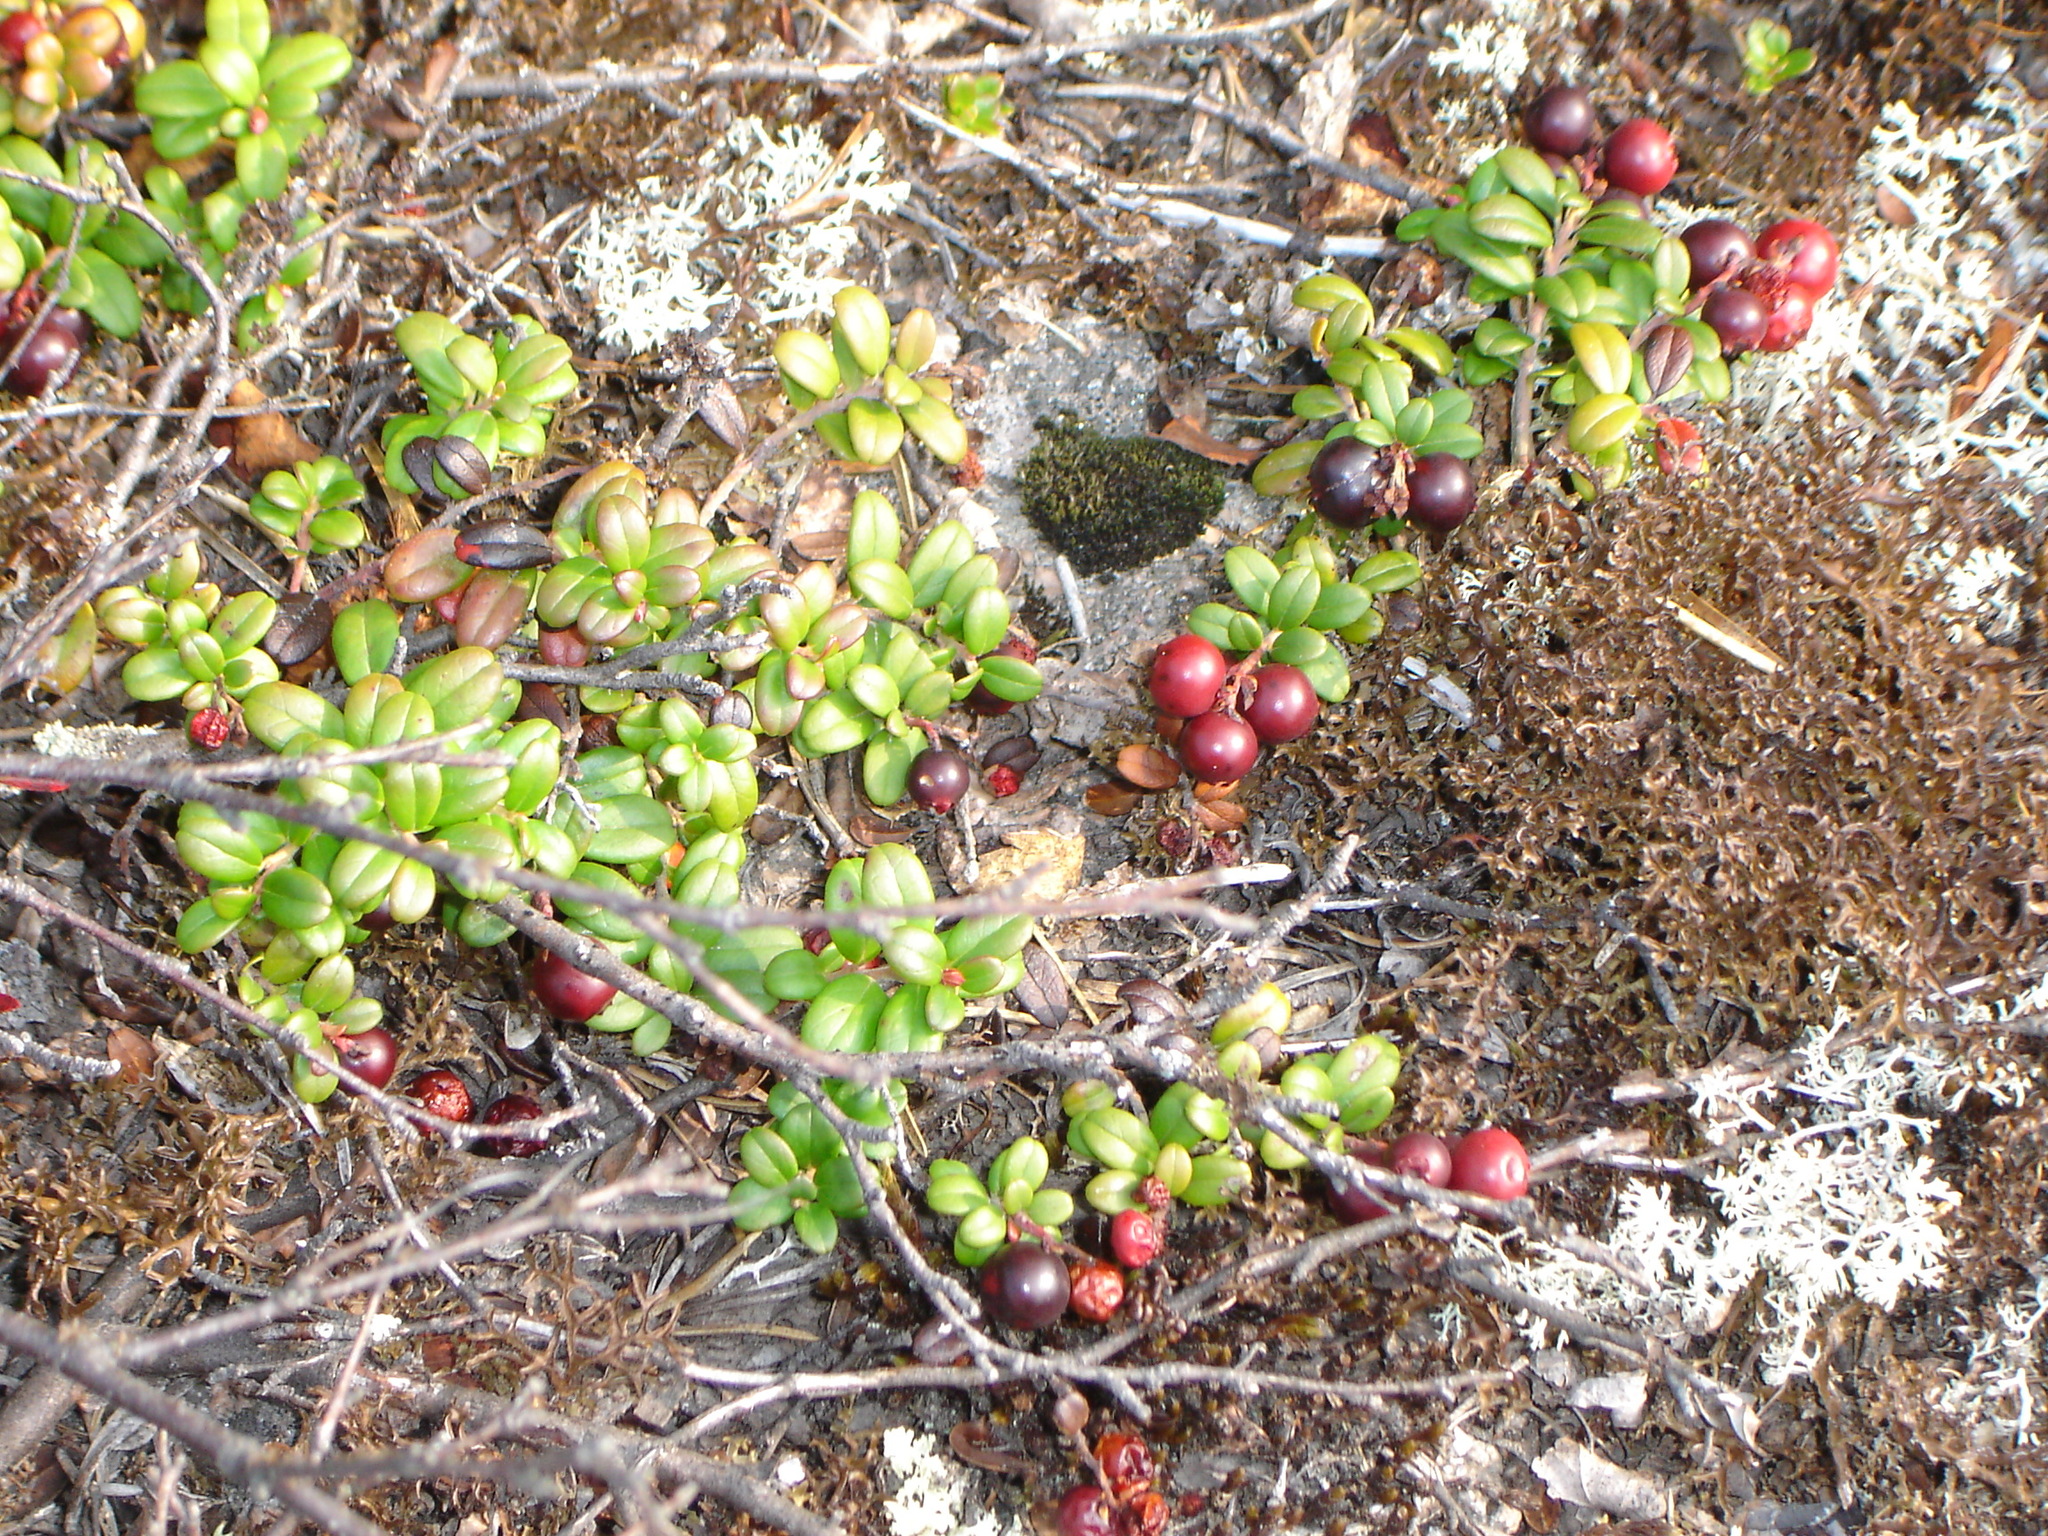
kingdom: Plantae
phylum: Tracheophyta
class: Magnoliopsida
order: Ericales
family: Ericaceae
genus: Vaccinium
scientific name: Vaccinium vitis-idaea
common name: Cowberry
